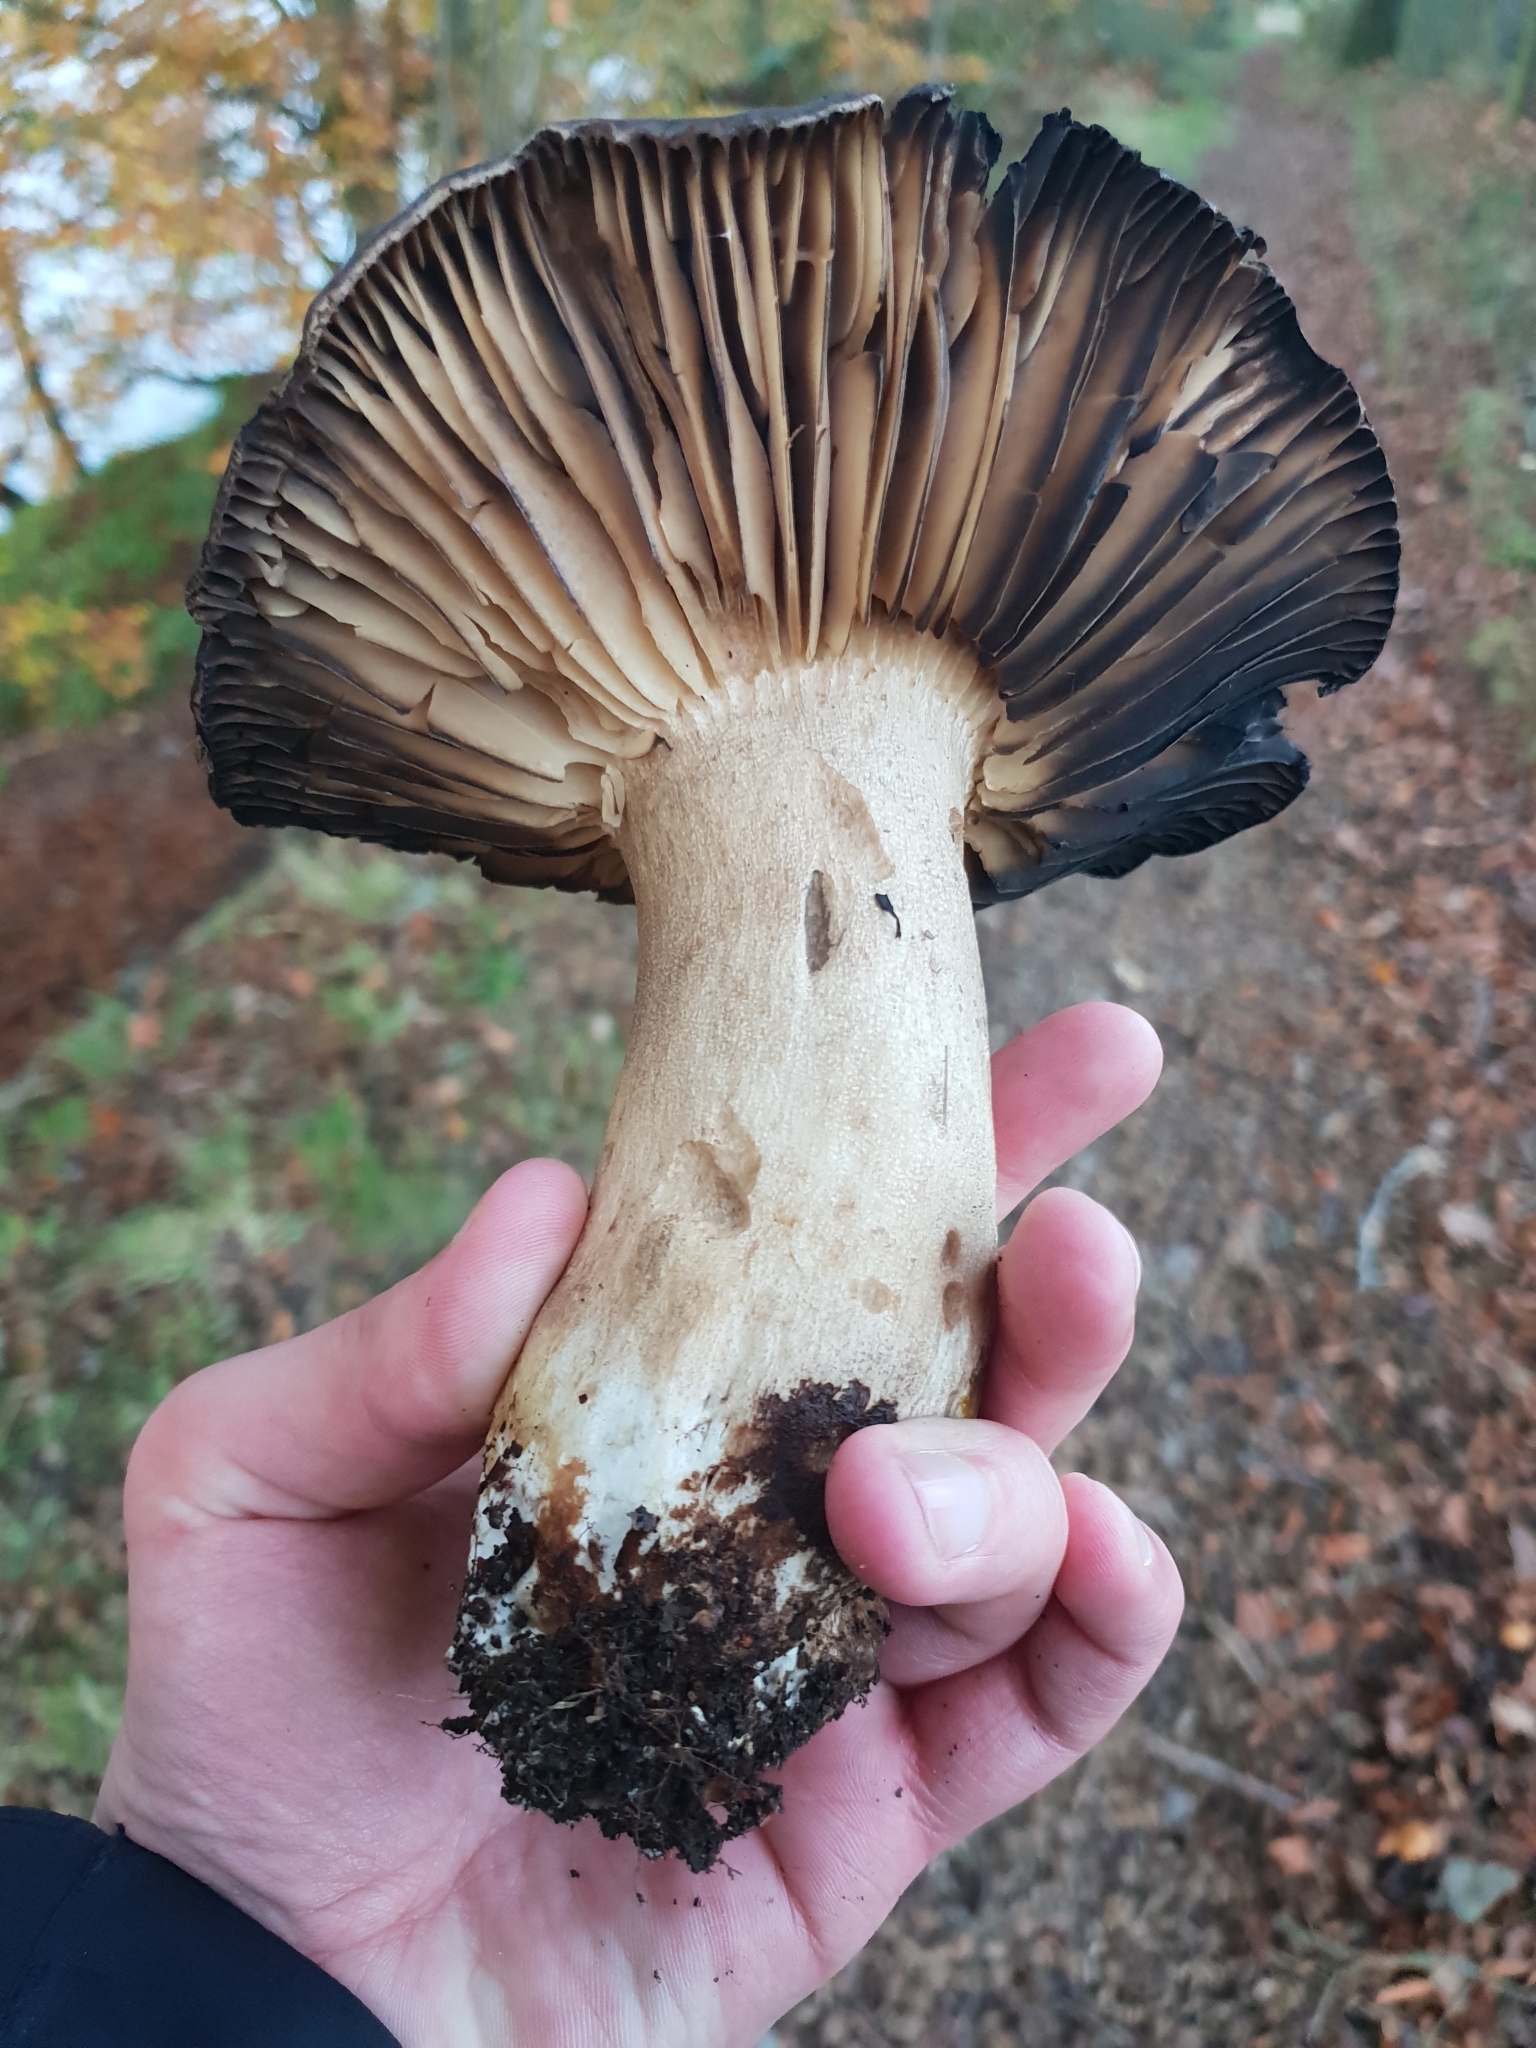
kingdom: Fungi
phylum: Basidiomycota
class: Agaricomycetes
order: Russulales
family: Russulaceae
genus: Russula
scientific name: Russula adusta
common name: Winecork brittlegill
